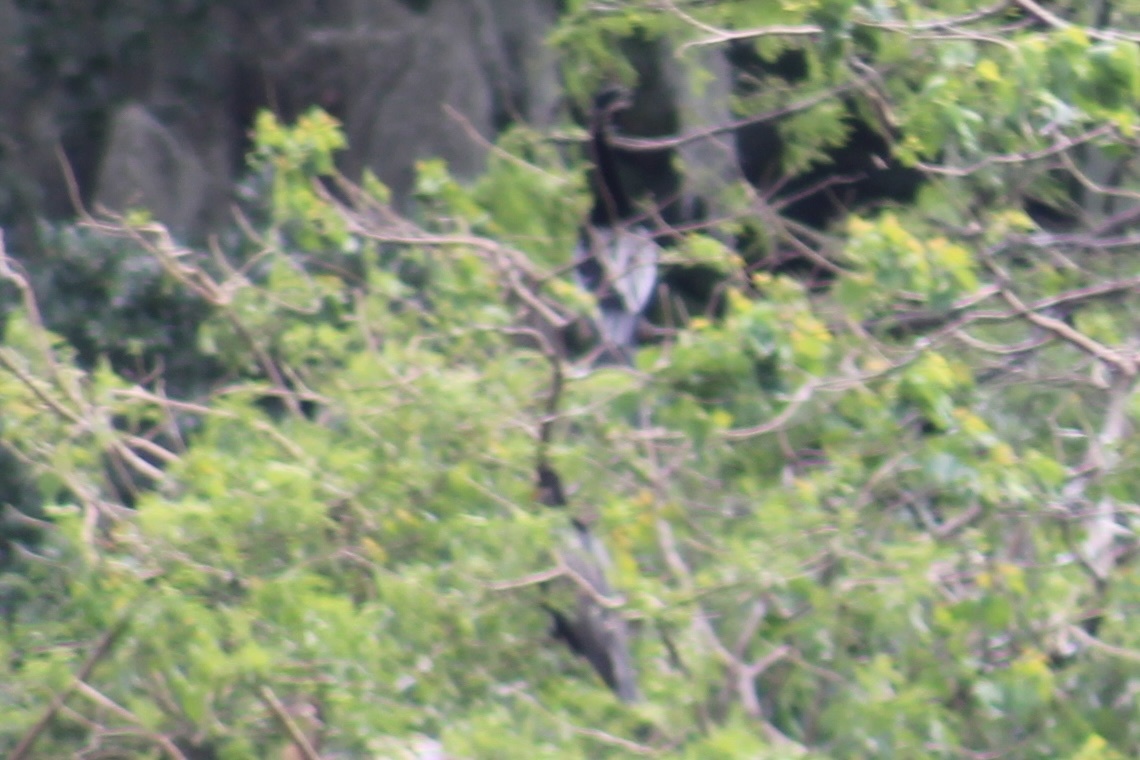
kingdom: Animalia
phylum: Chordata
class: Aves
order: Suliformes
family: Anhingidae
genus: Anhinga
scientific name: Anhinga anhinga
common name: Anhinga
